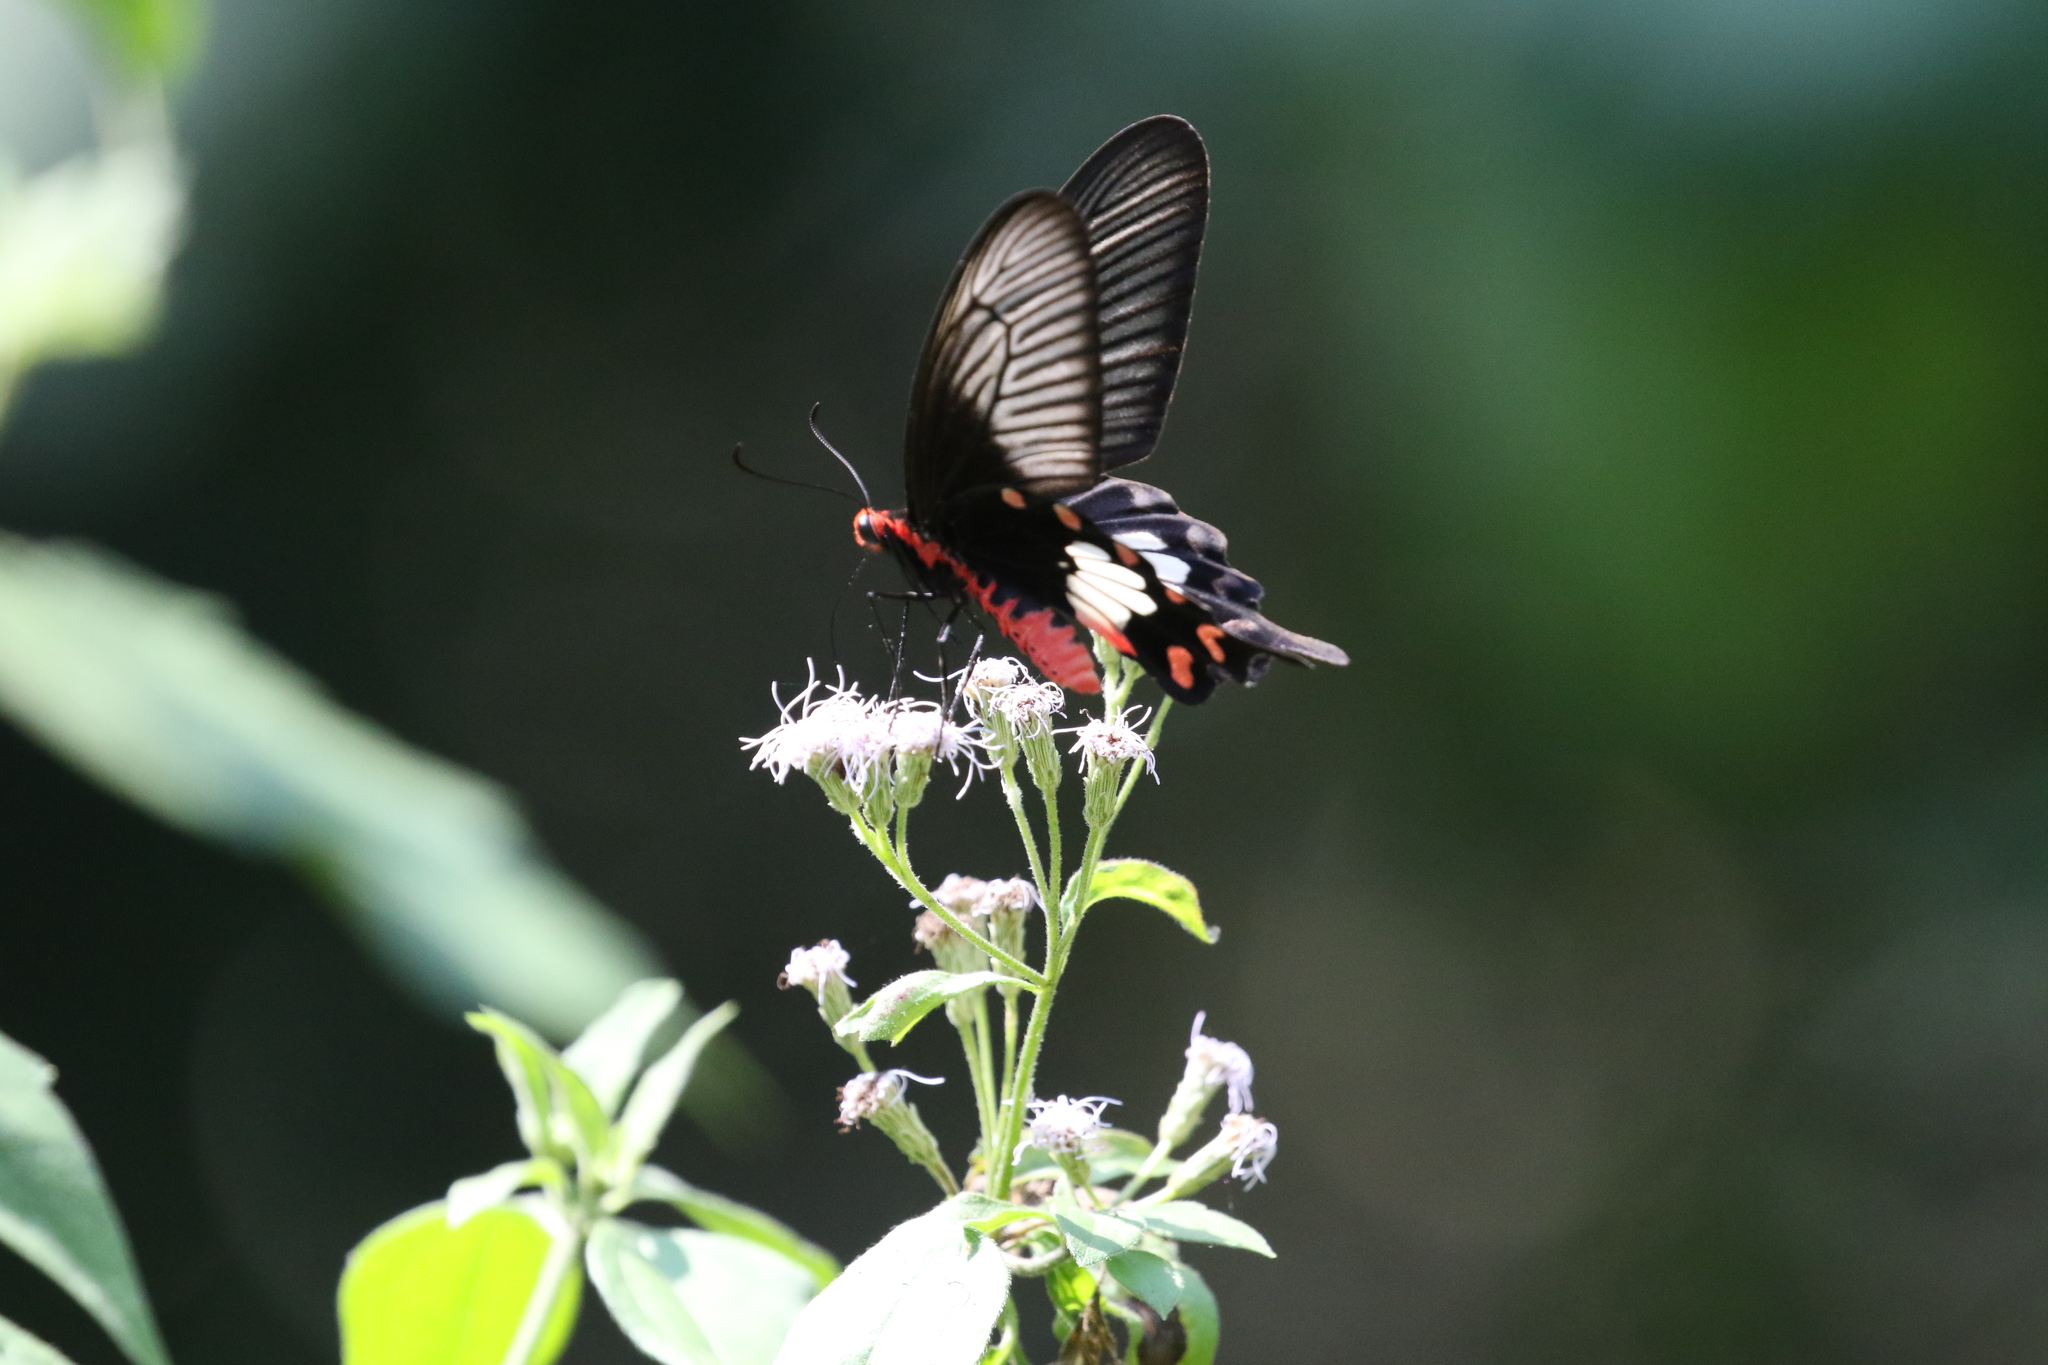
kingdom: Animalia
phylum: Arthropoda
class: Insecta
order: Lepidoptera
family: Papilionidae
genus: Pachliopta
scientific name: Pachliopta aristolochiae
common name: Common rose
